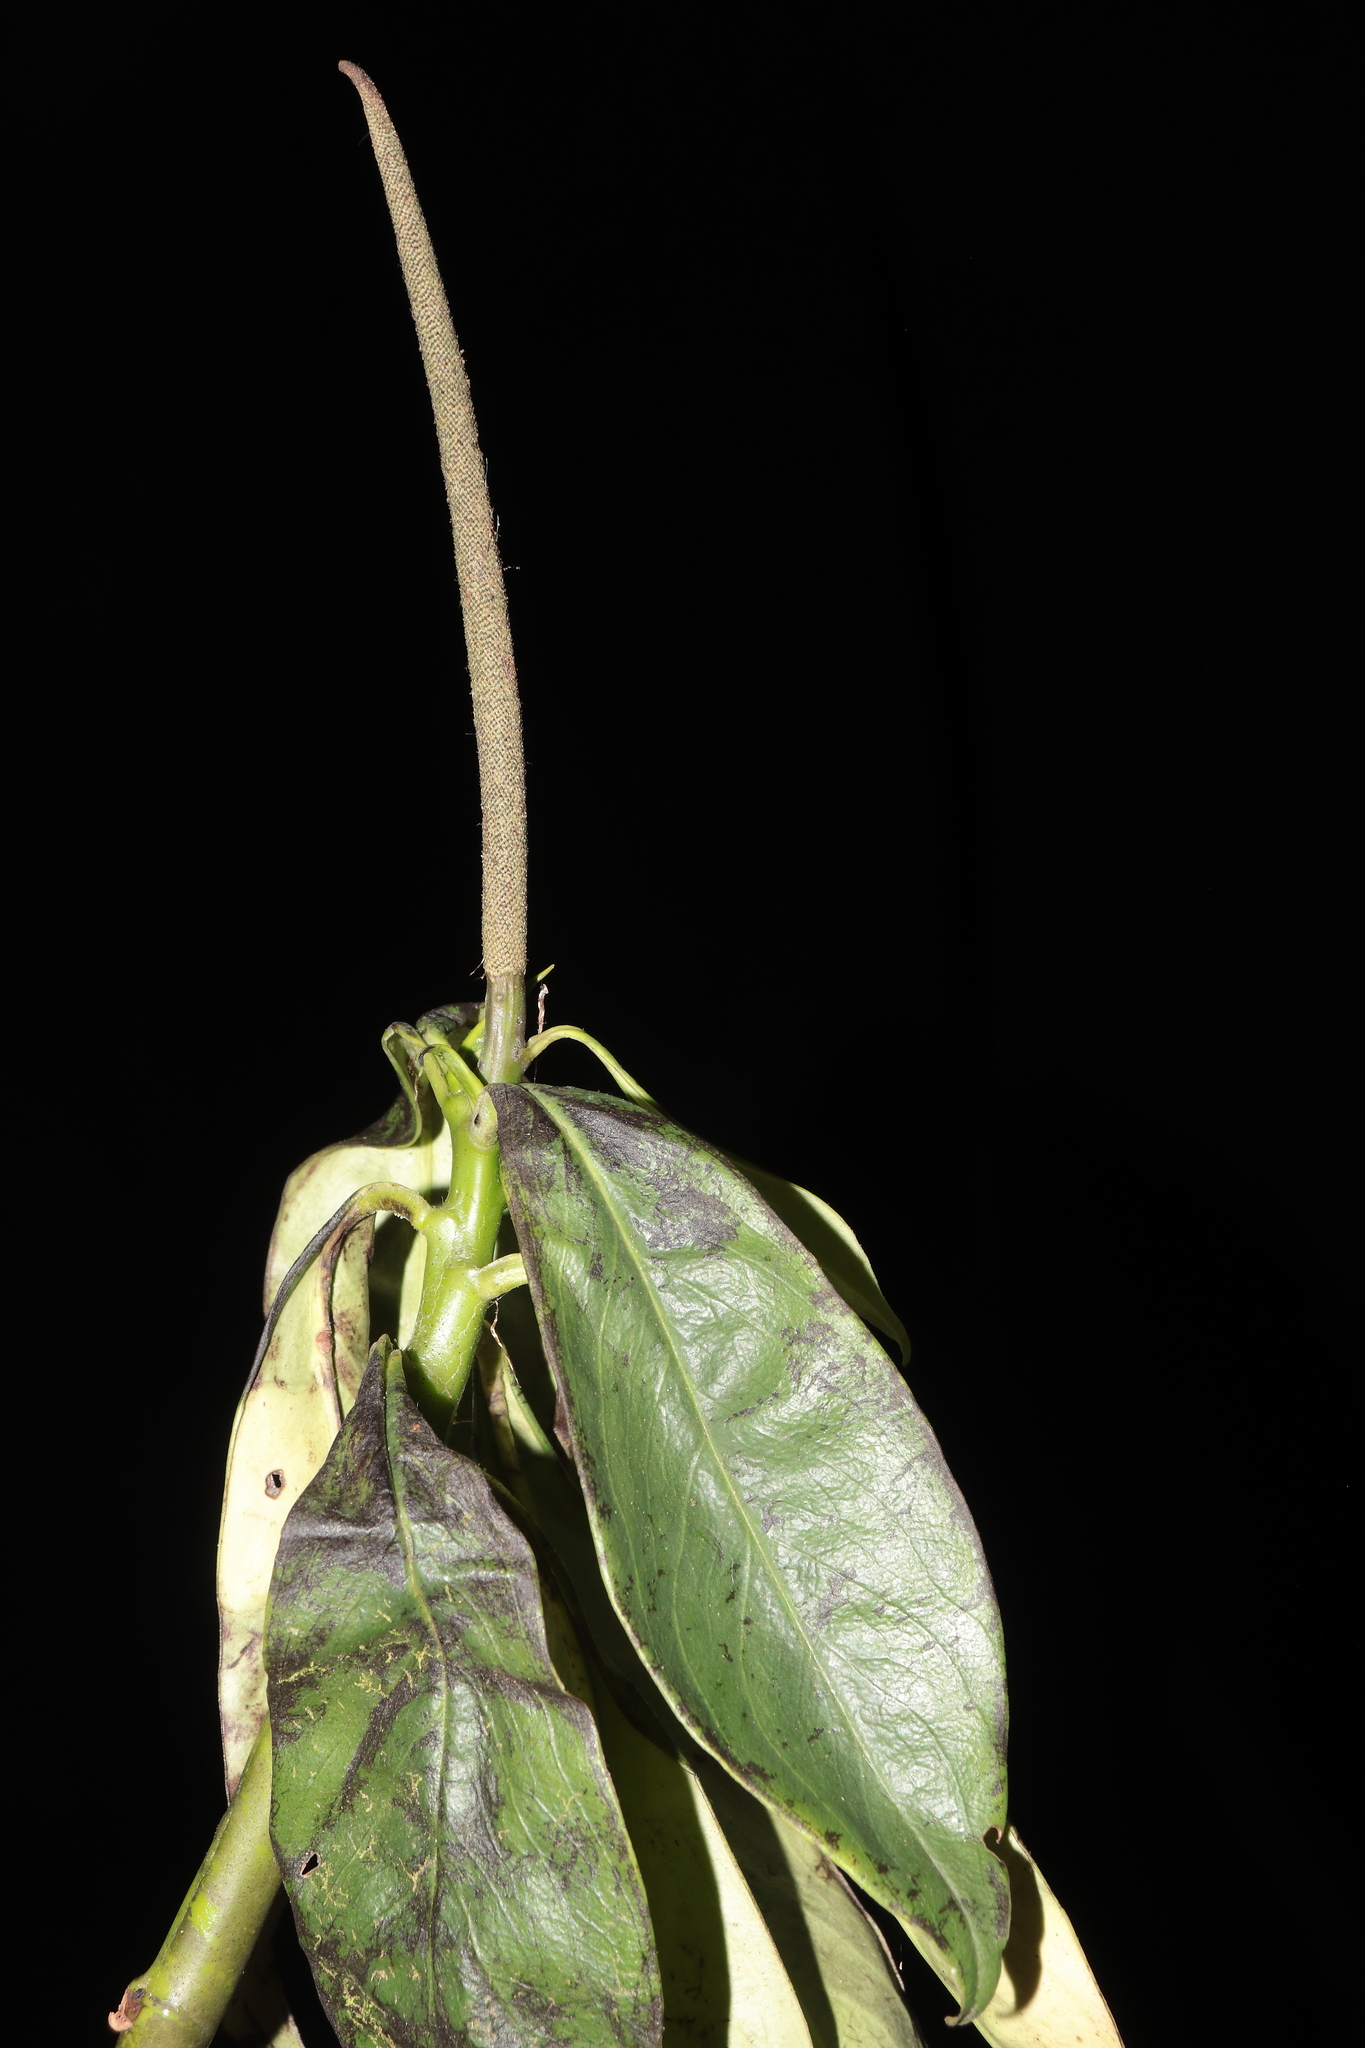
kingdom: Plantae
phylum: Tracheophyta
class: Magnoliopsida
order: Piperales
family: Piperaceae
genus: Peperomia
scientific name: Peperomia acuminata
